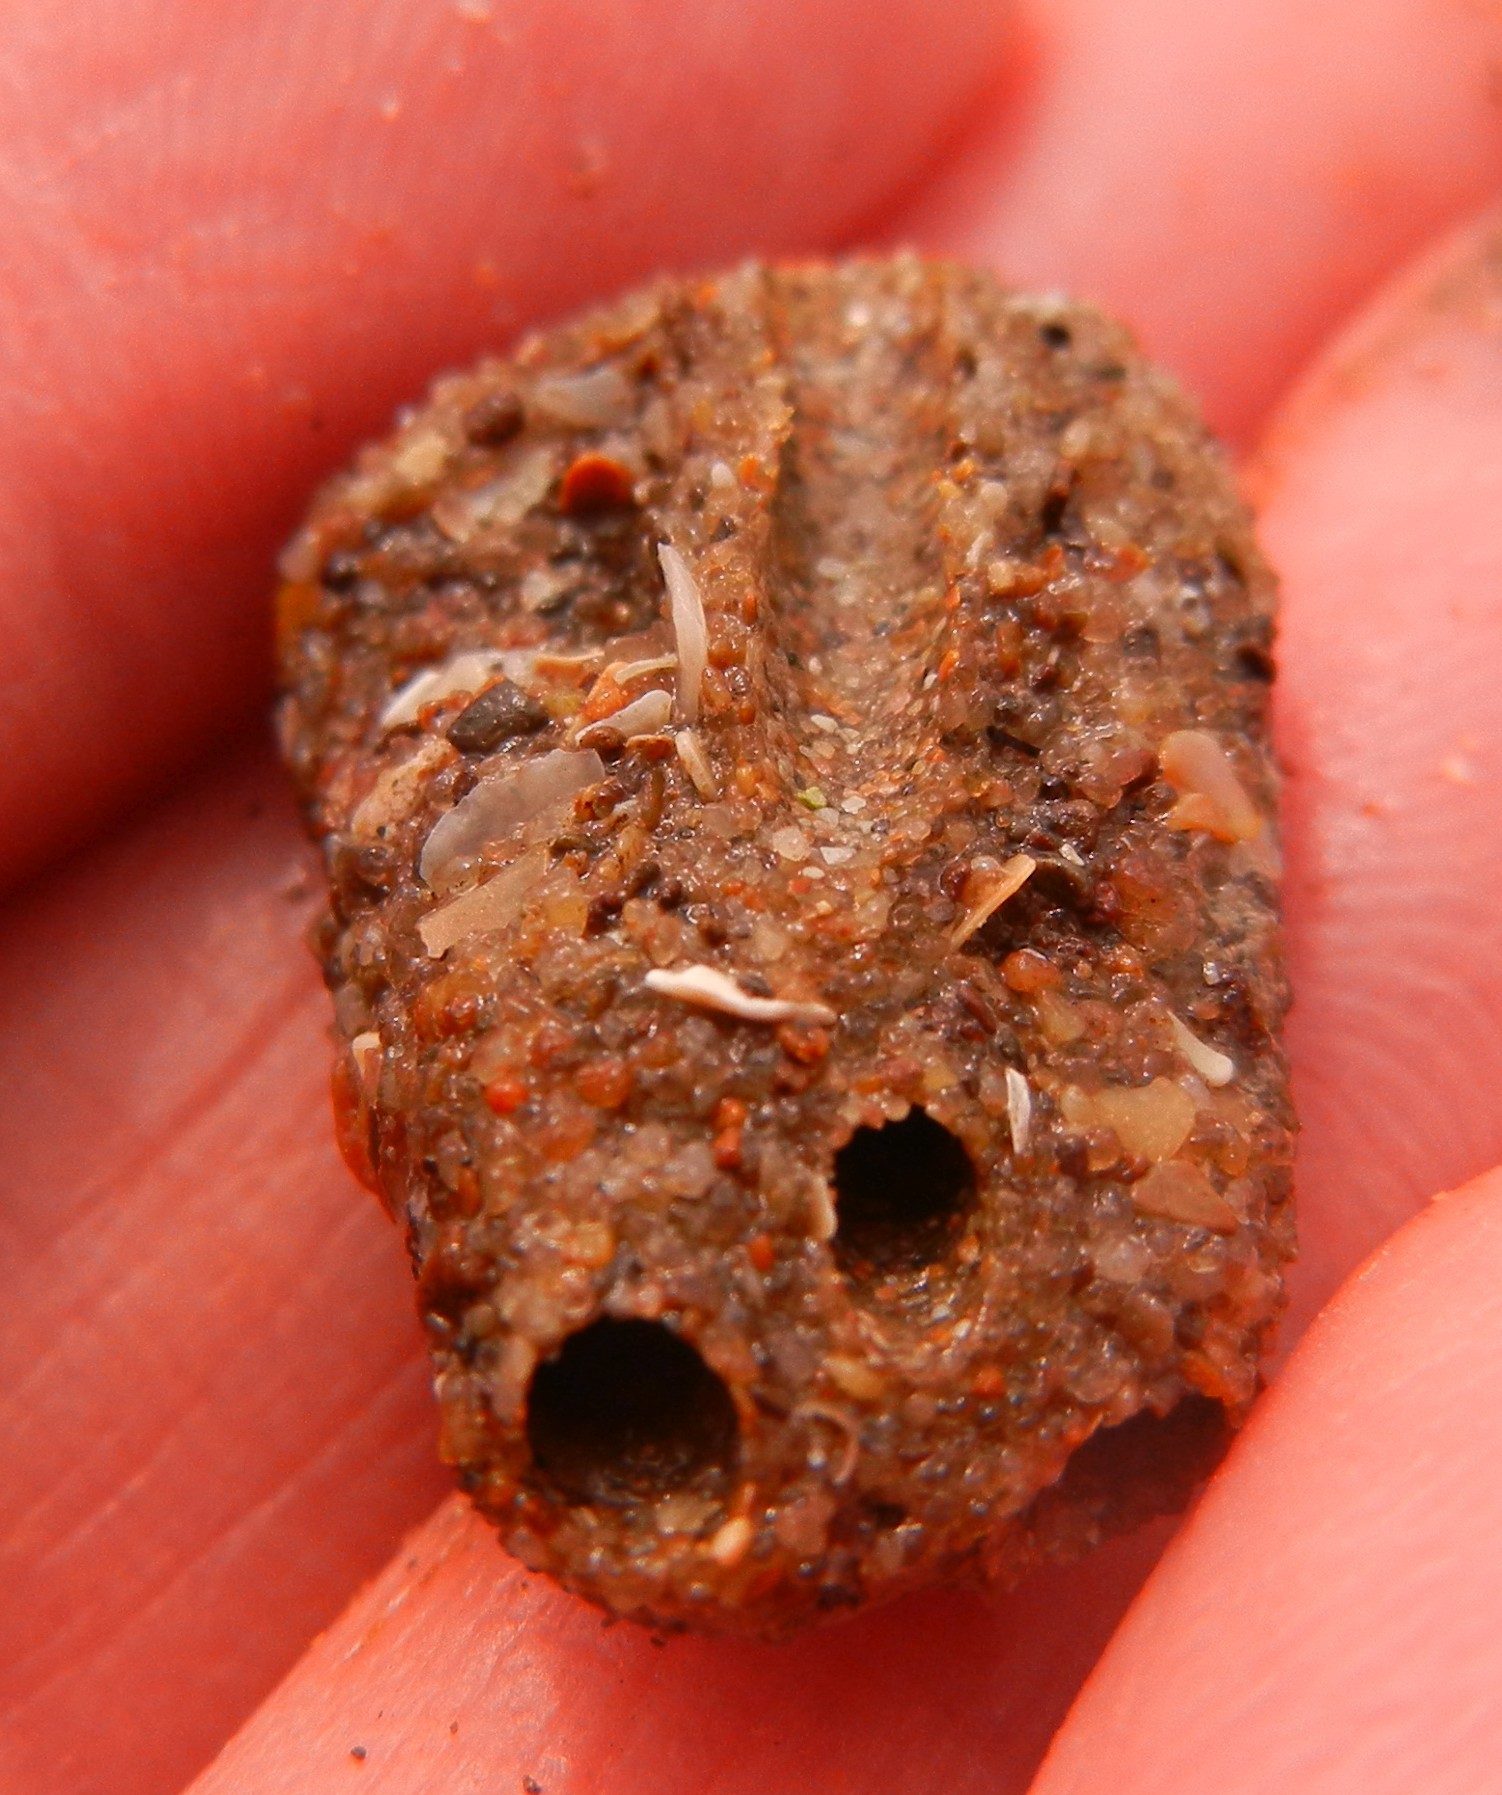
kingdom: Animalia
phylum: Annelida
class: Polychaeta
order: Sabellida
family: Sabellariidae
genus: Sabellaria
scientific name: Sabellaria alveolata
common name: Honeycomb worm
